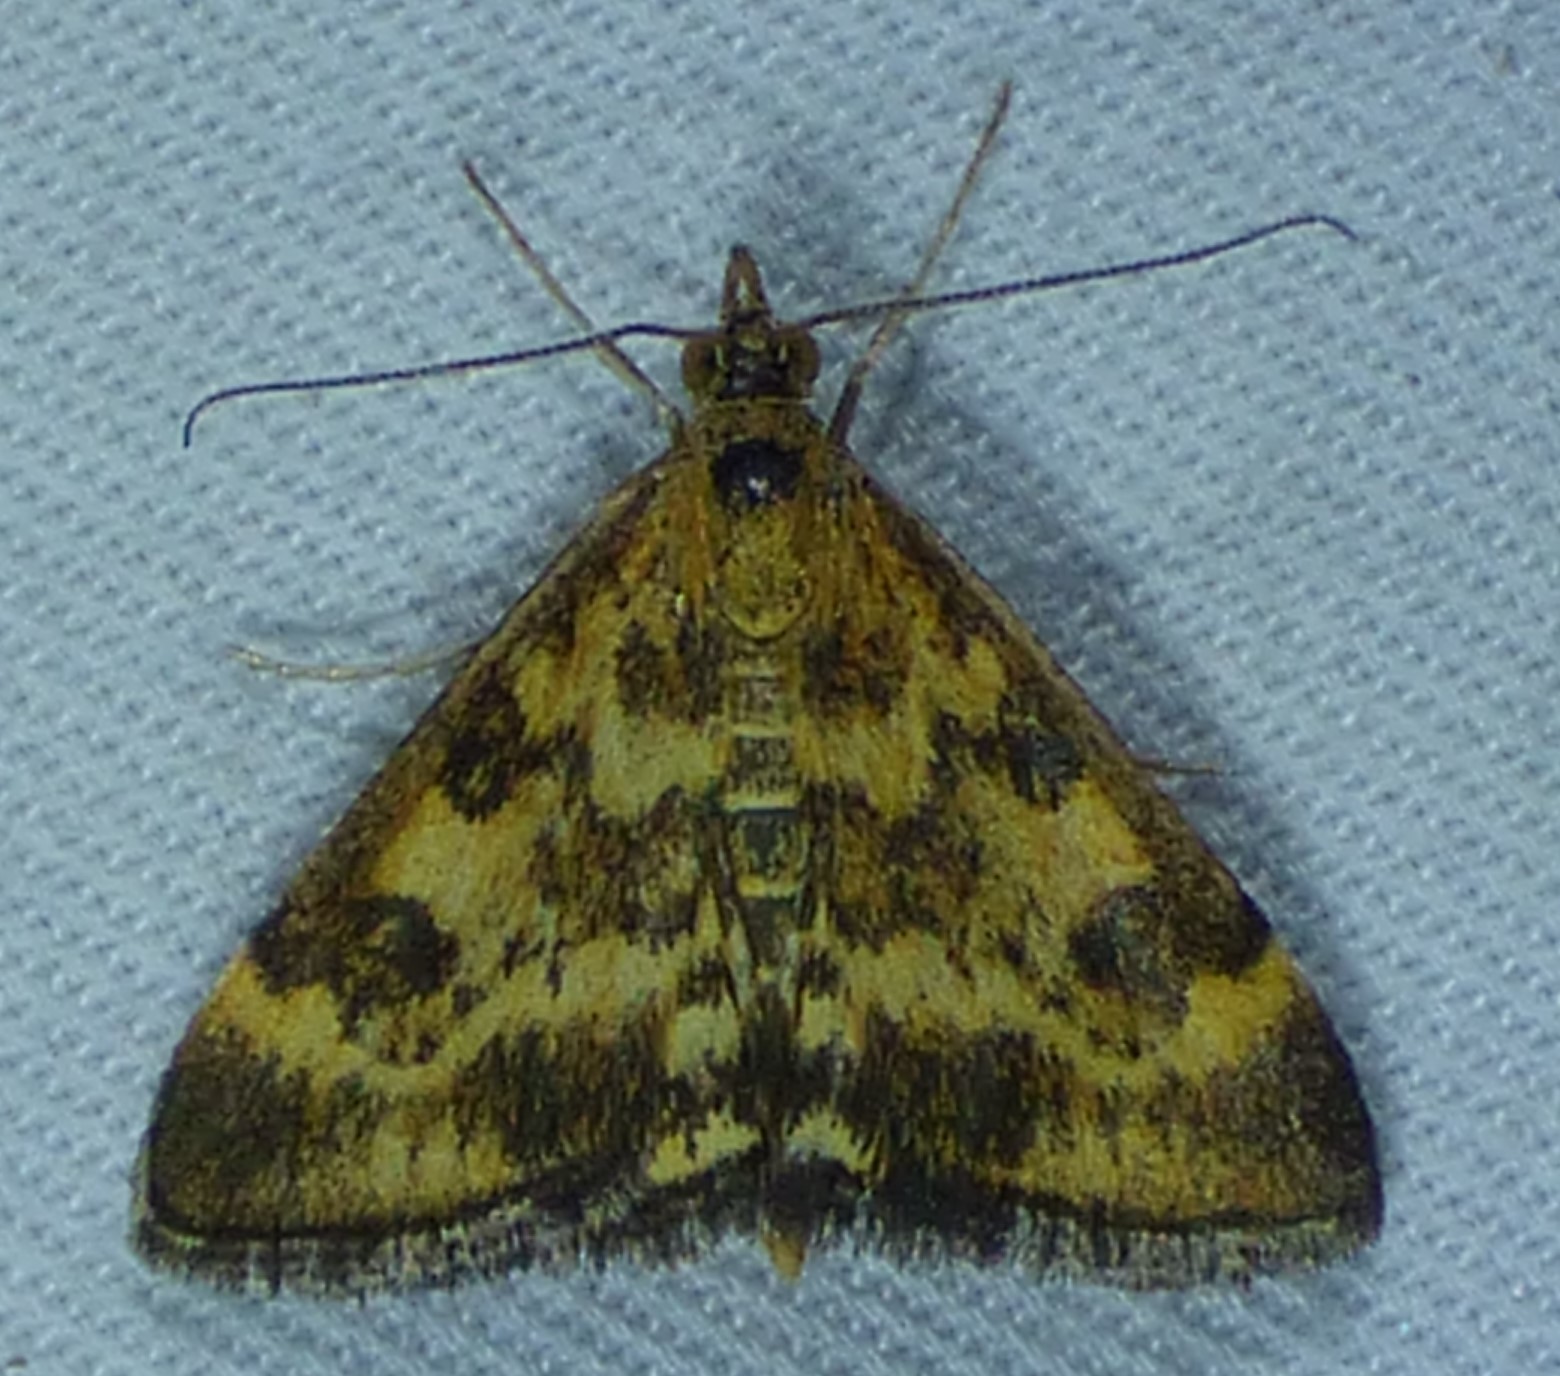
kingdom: Animalia
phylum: Arthropoda
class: Insecta
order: Lepidoptera
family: Crambidae
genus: Pyrausta
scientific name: Pyrausta subsequalis
